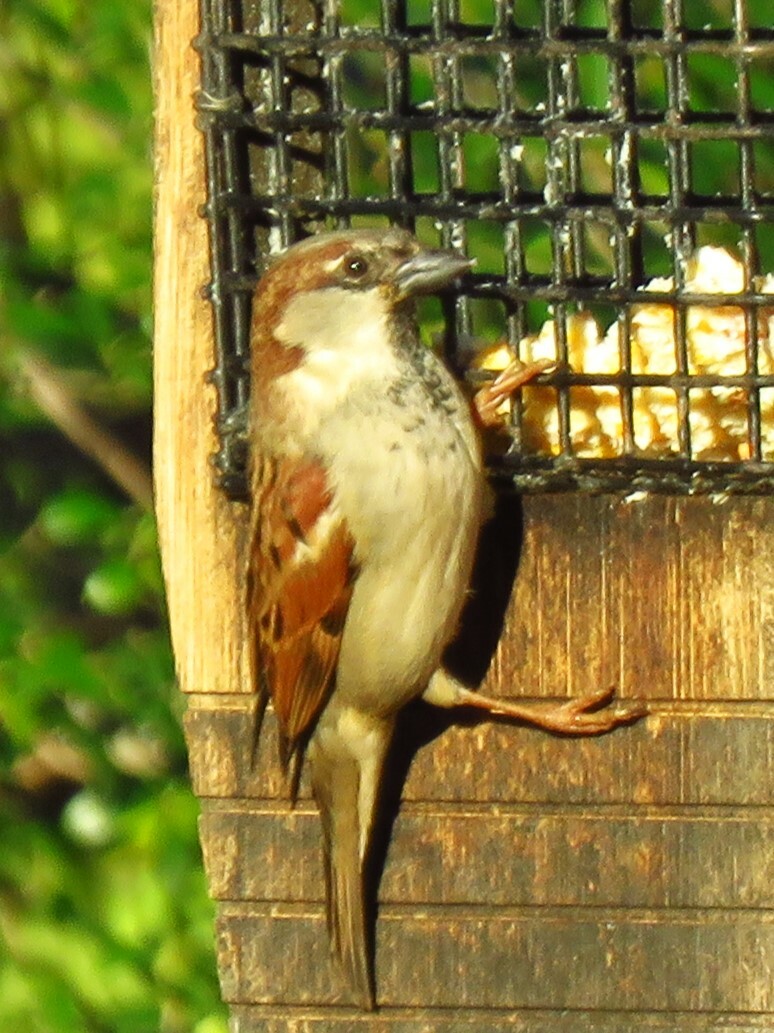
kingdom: Animalia
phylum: Chordata
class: Aves
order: Passeriformes
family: Passeridae
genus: Passer
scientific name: Passer domesticus
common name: House sparrow
